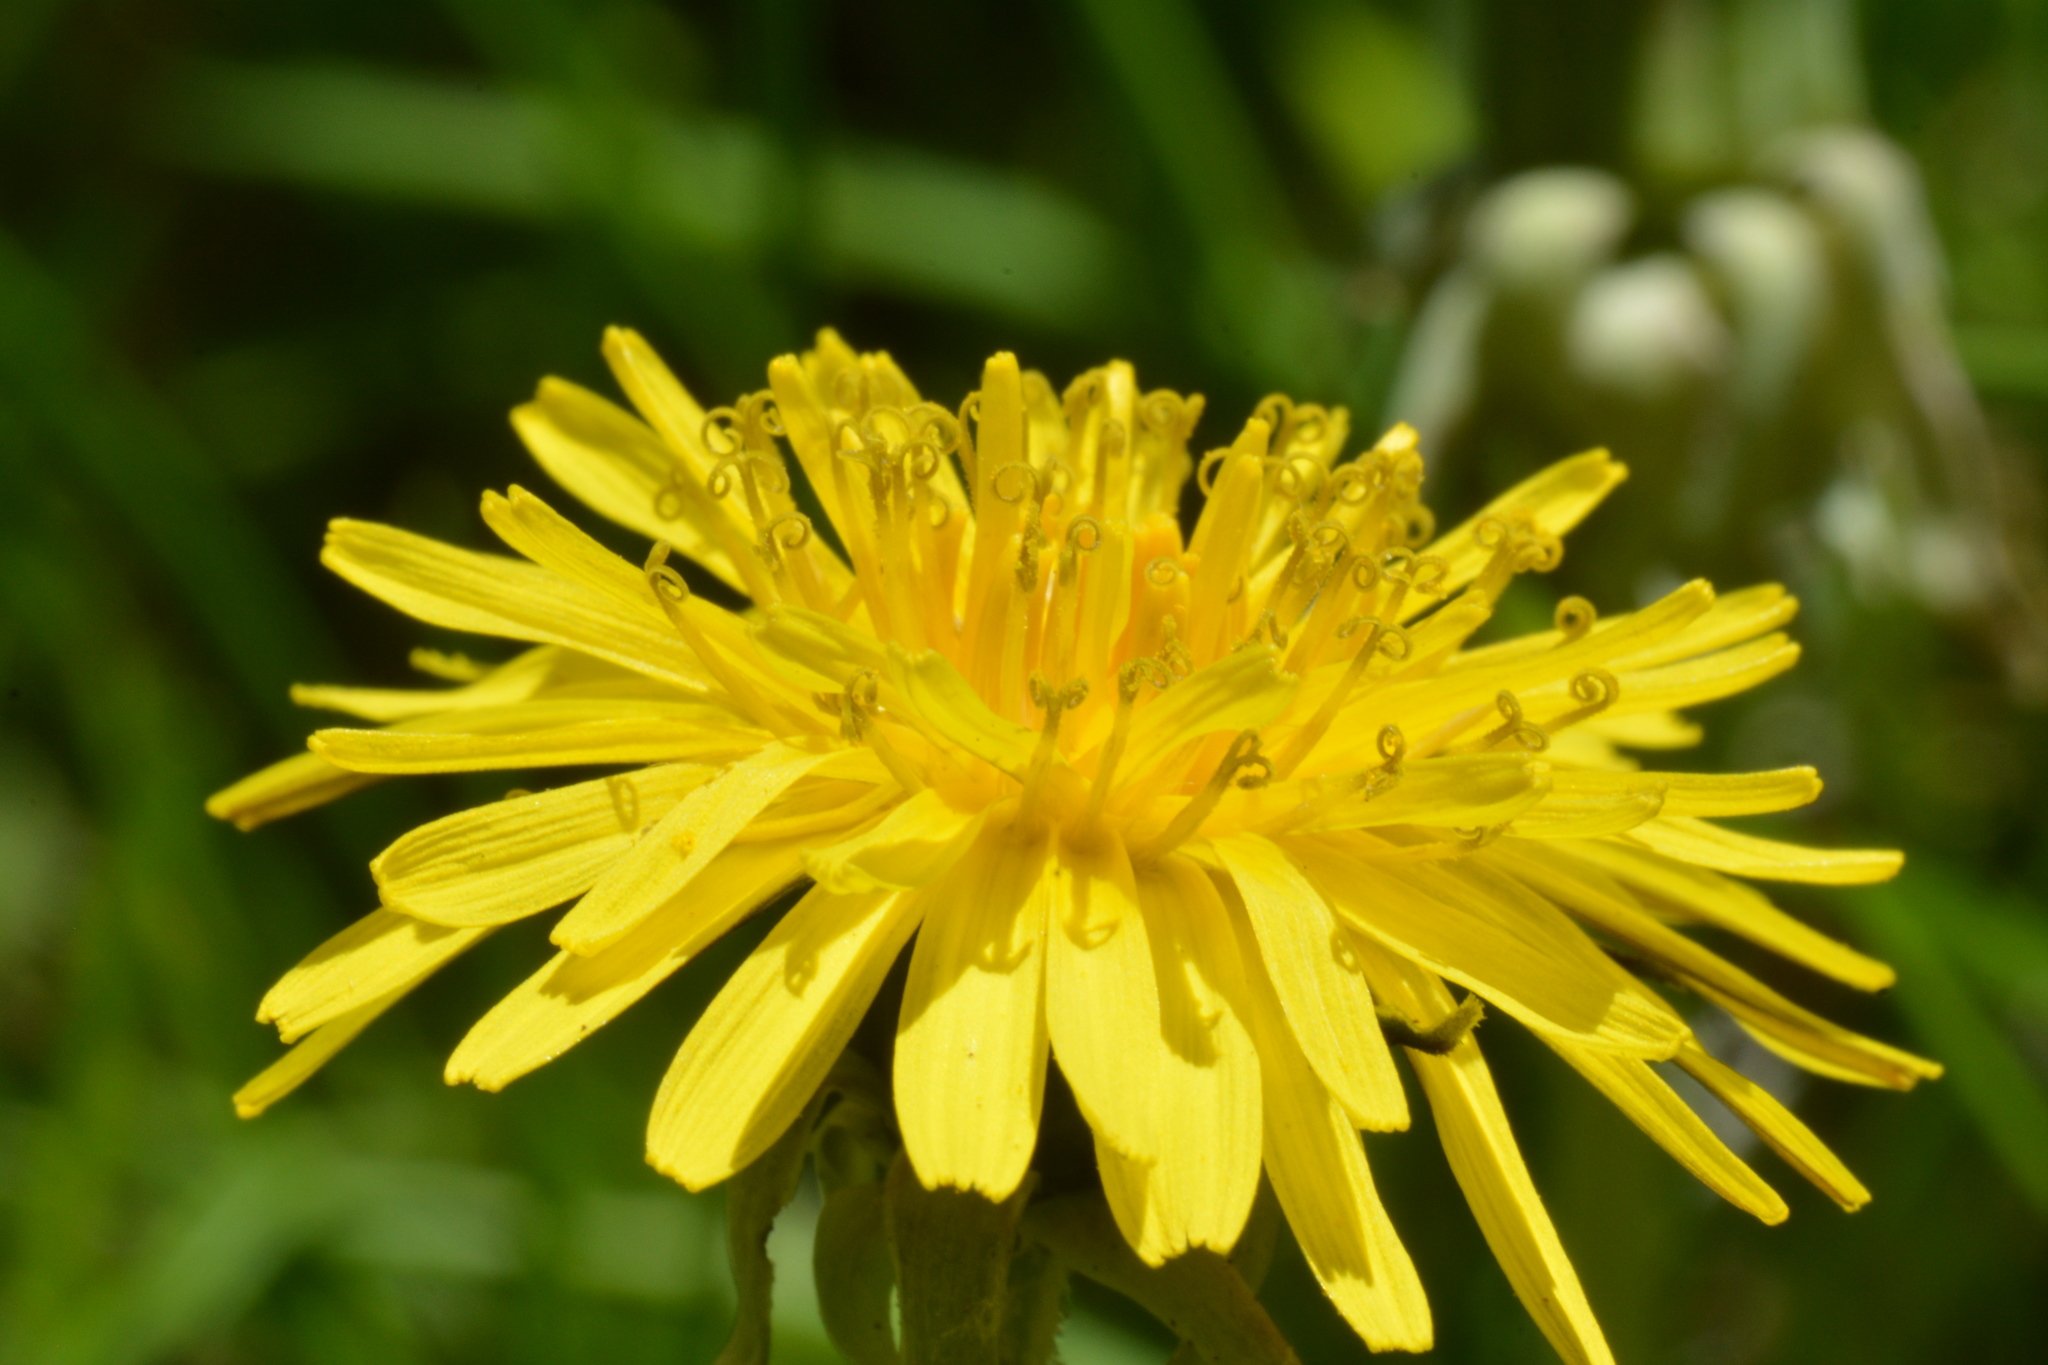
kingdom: Plantae
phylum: Tracheophyta
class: Magnoliopsida
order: Asterales
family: Asteraceae
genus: Taraxacum
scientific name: Taraxacum officinale
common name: Common dandelion
